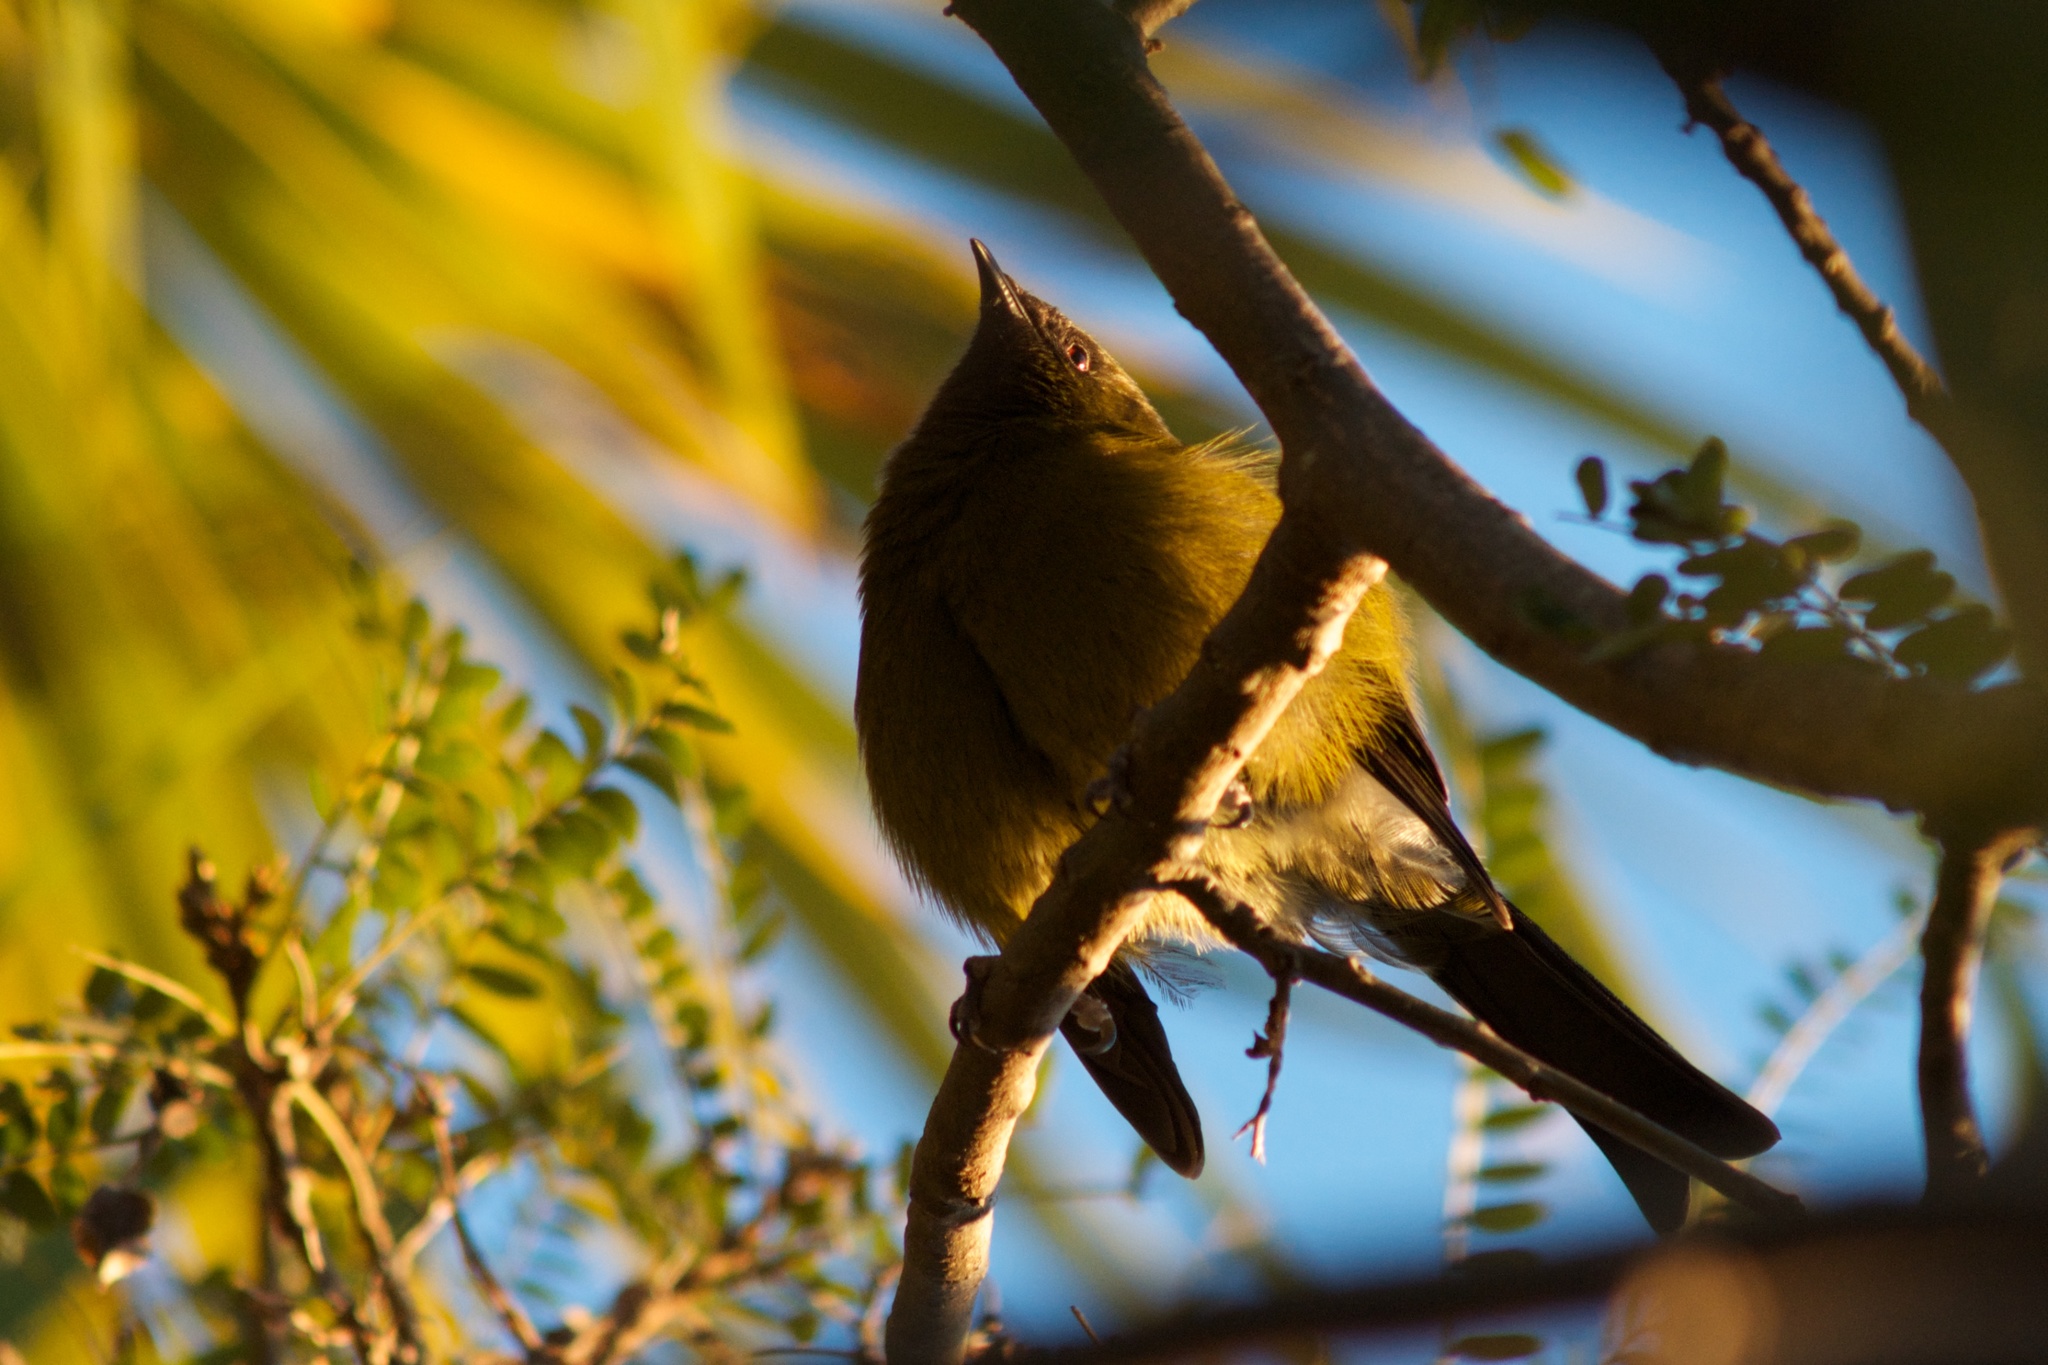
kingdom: Animalia
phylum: Chordata
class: Aves
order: Passeriformes
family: Meliphagidae
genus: Anthornis
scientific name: Anthornis melanura
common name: New zealand bellbird
